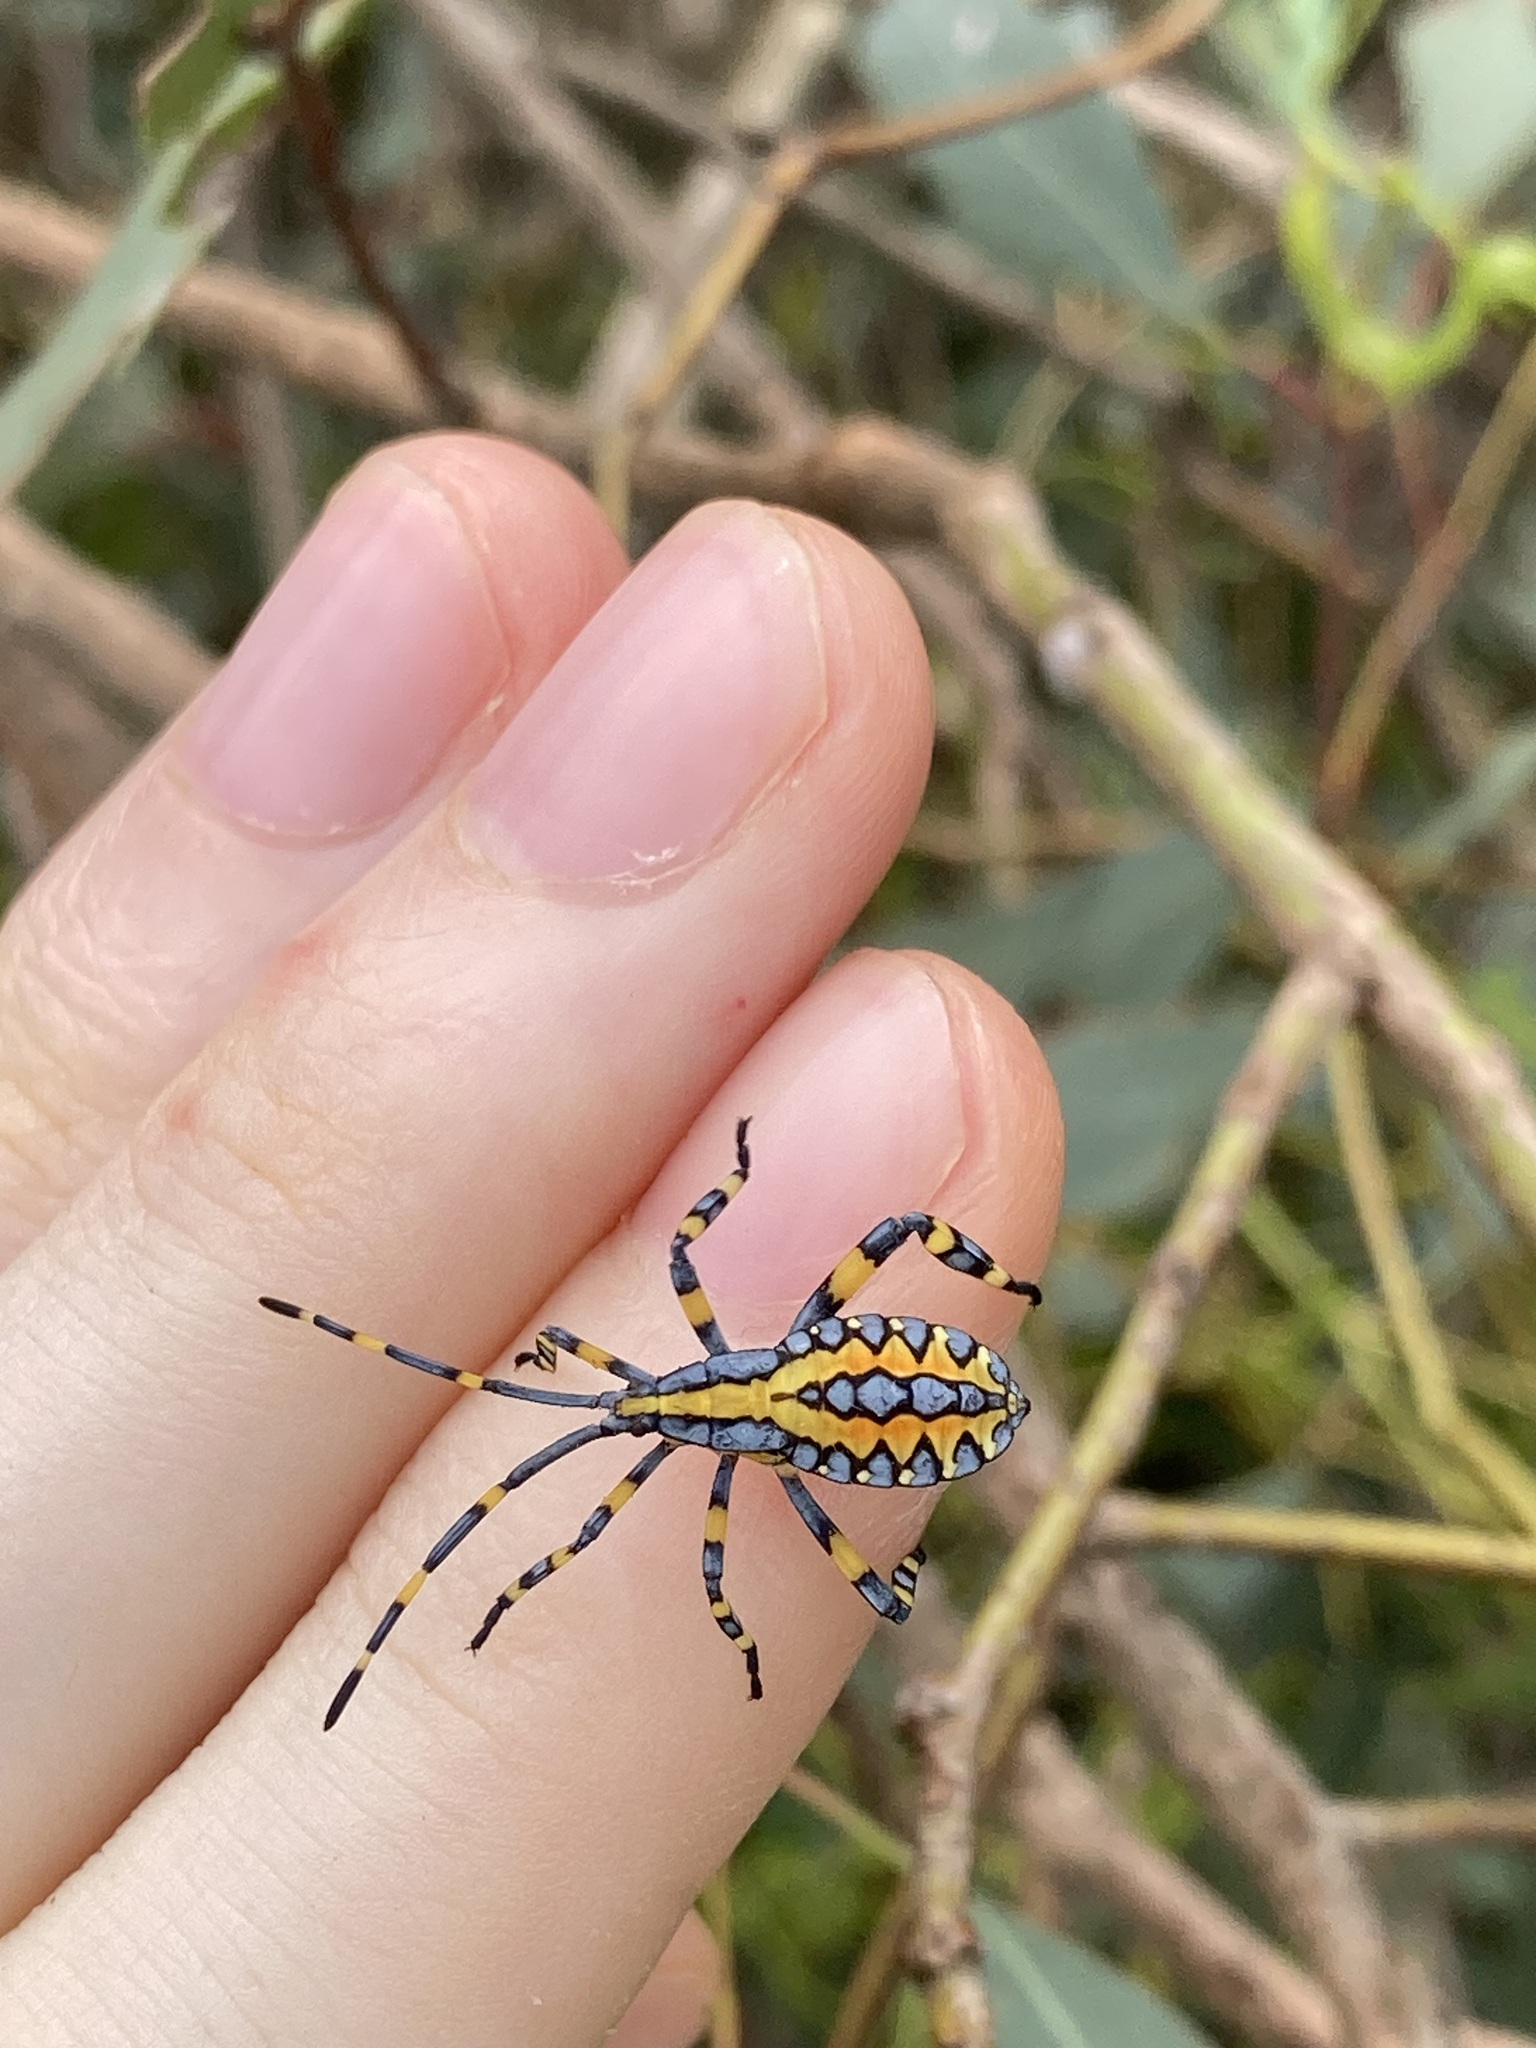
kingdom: Animalia
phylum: Arthropoda
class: Insecta
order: Hemiptera
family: Coreidae
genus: Amorbus
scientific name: Amorbus atomarius
